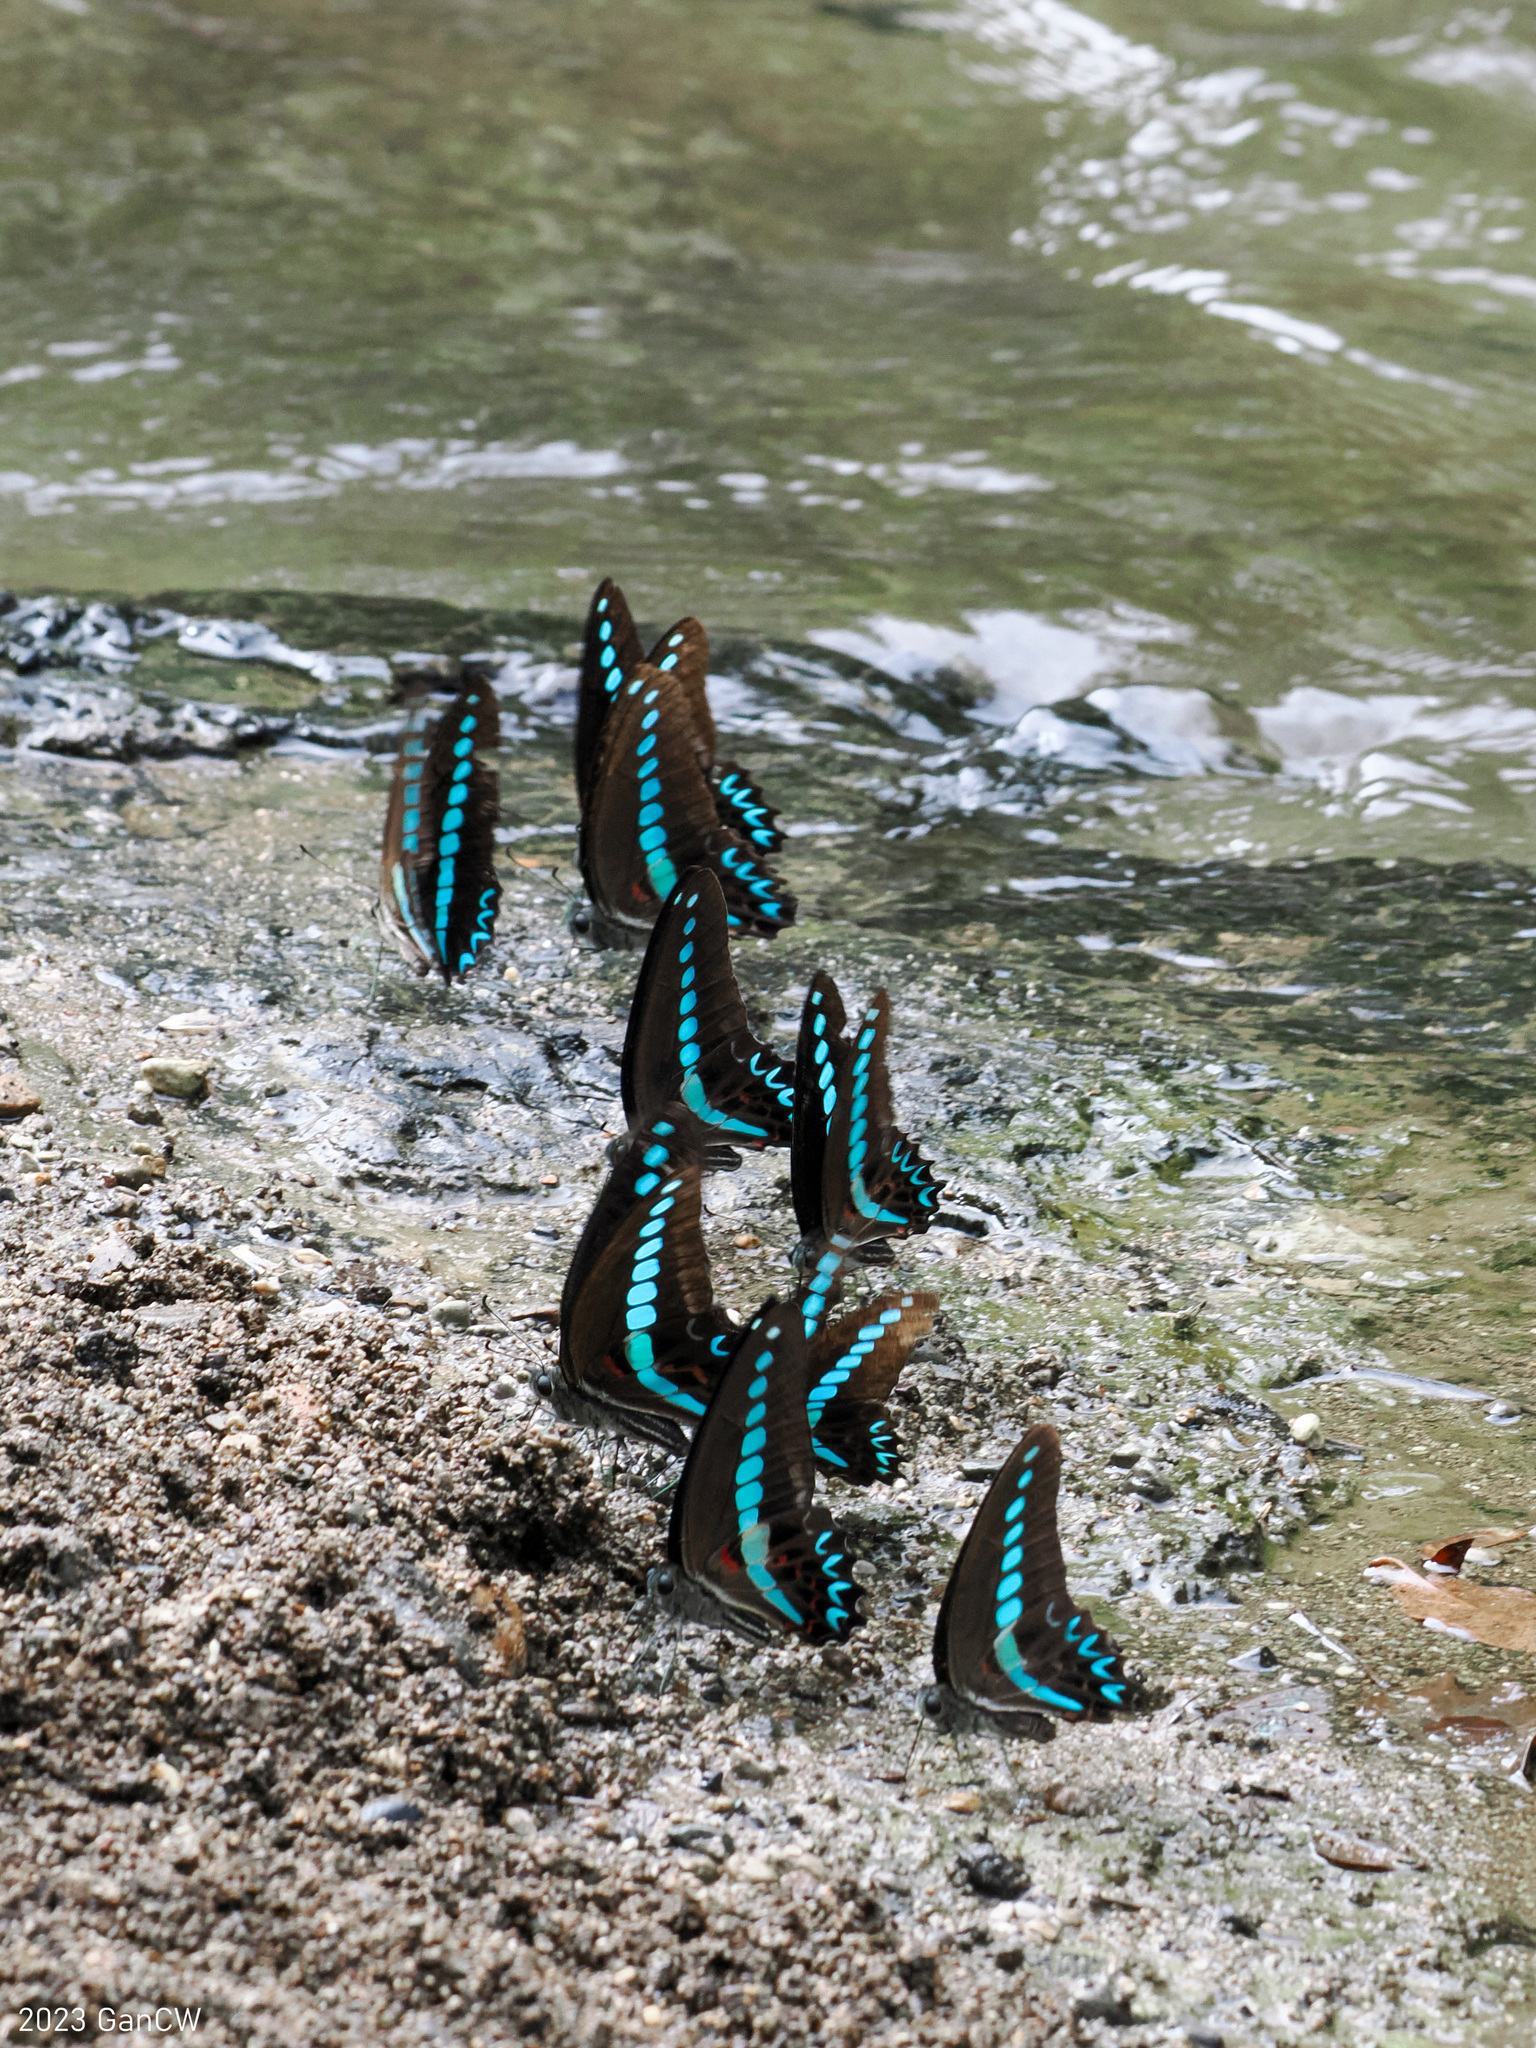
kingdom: Animalia
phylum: Arthropoda
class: Insecta
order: Lepidoptera
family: Papilionidae
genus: Graphium
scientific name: Graphium milon
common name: Milon's swallowtail
